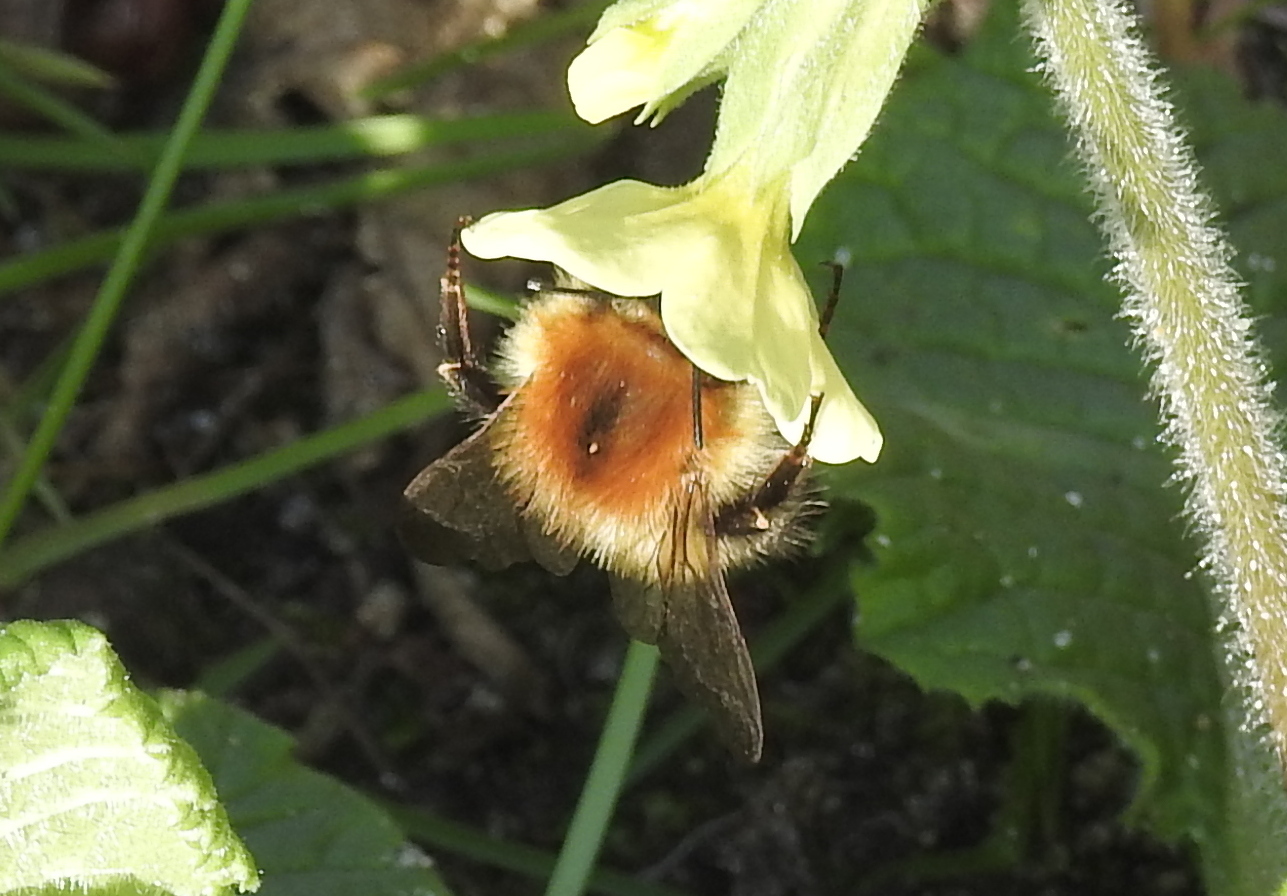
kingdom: Animalia
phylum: Arthropoda
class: Insecta
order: Hymenoptera
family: Apidae
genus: Bombus
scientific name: Bombus pascuorum
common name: Common carder bee
